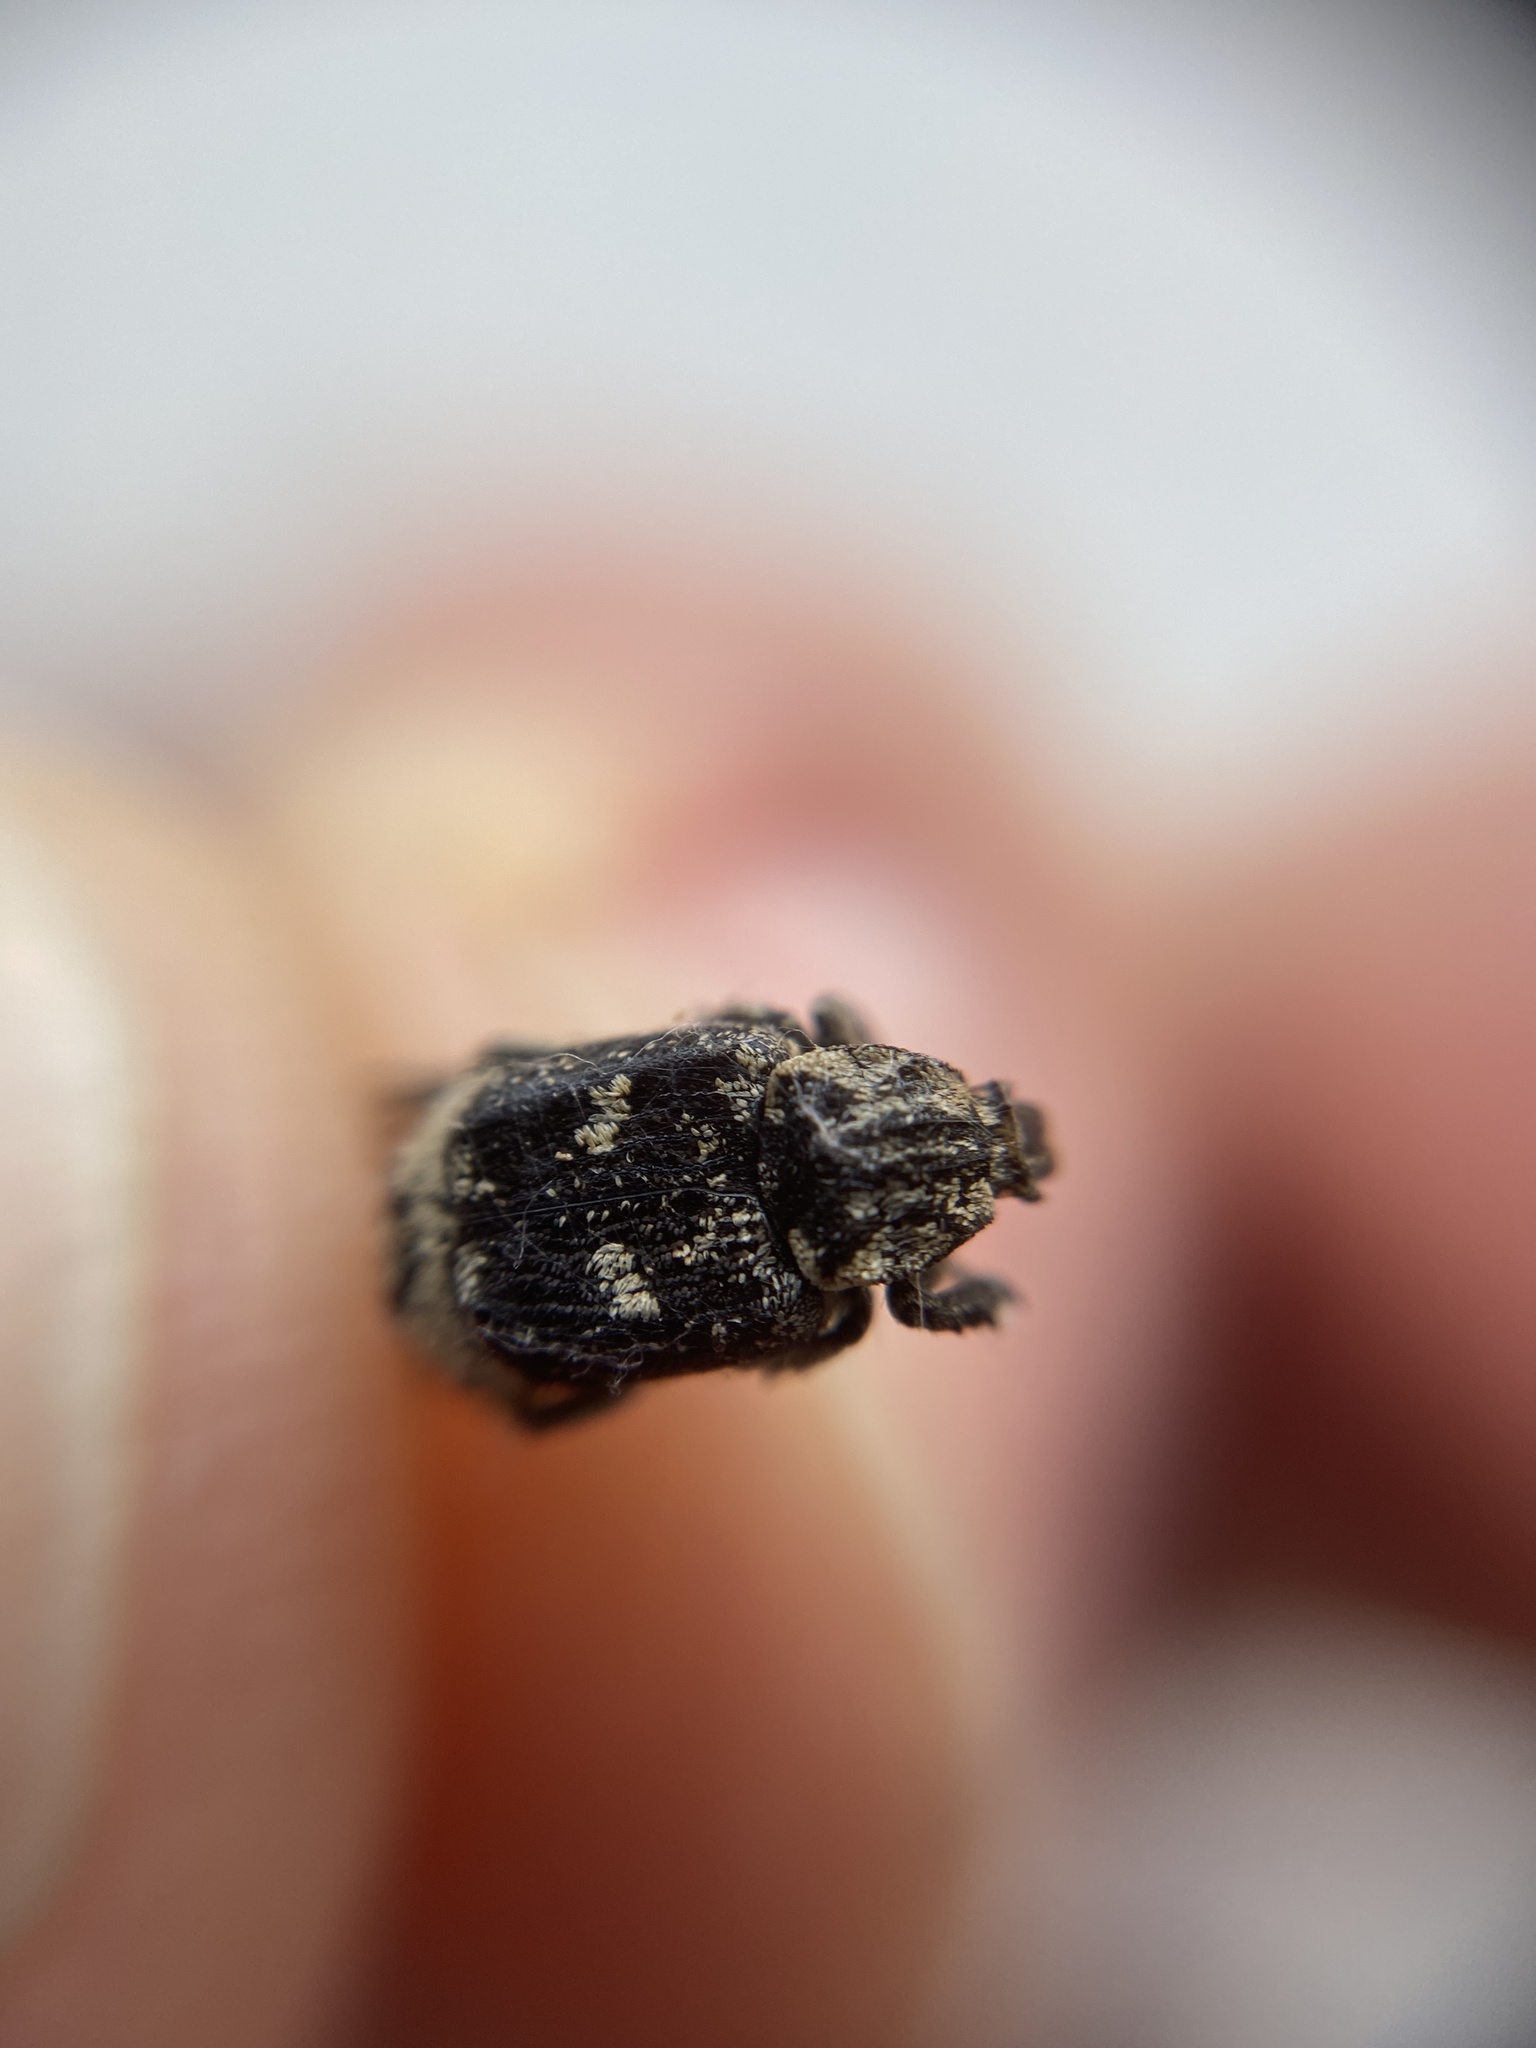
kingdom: Animalia
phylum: Arthropoda
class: Insecta
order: Coleoptera
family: Scarabaeidae
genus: Valgus
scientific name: Valgus hemipterus
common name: Bug flower chafer
